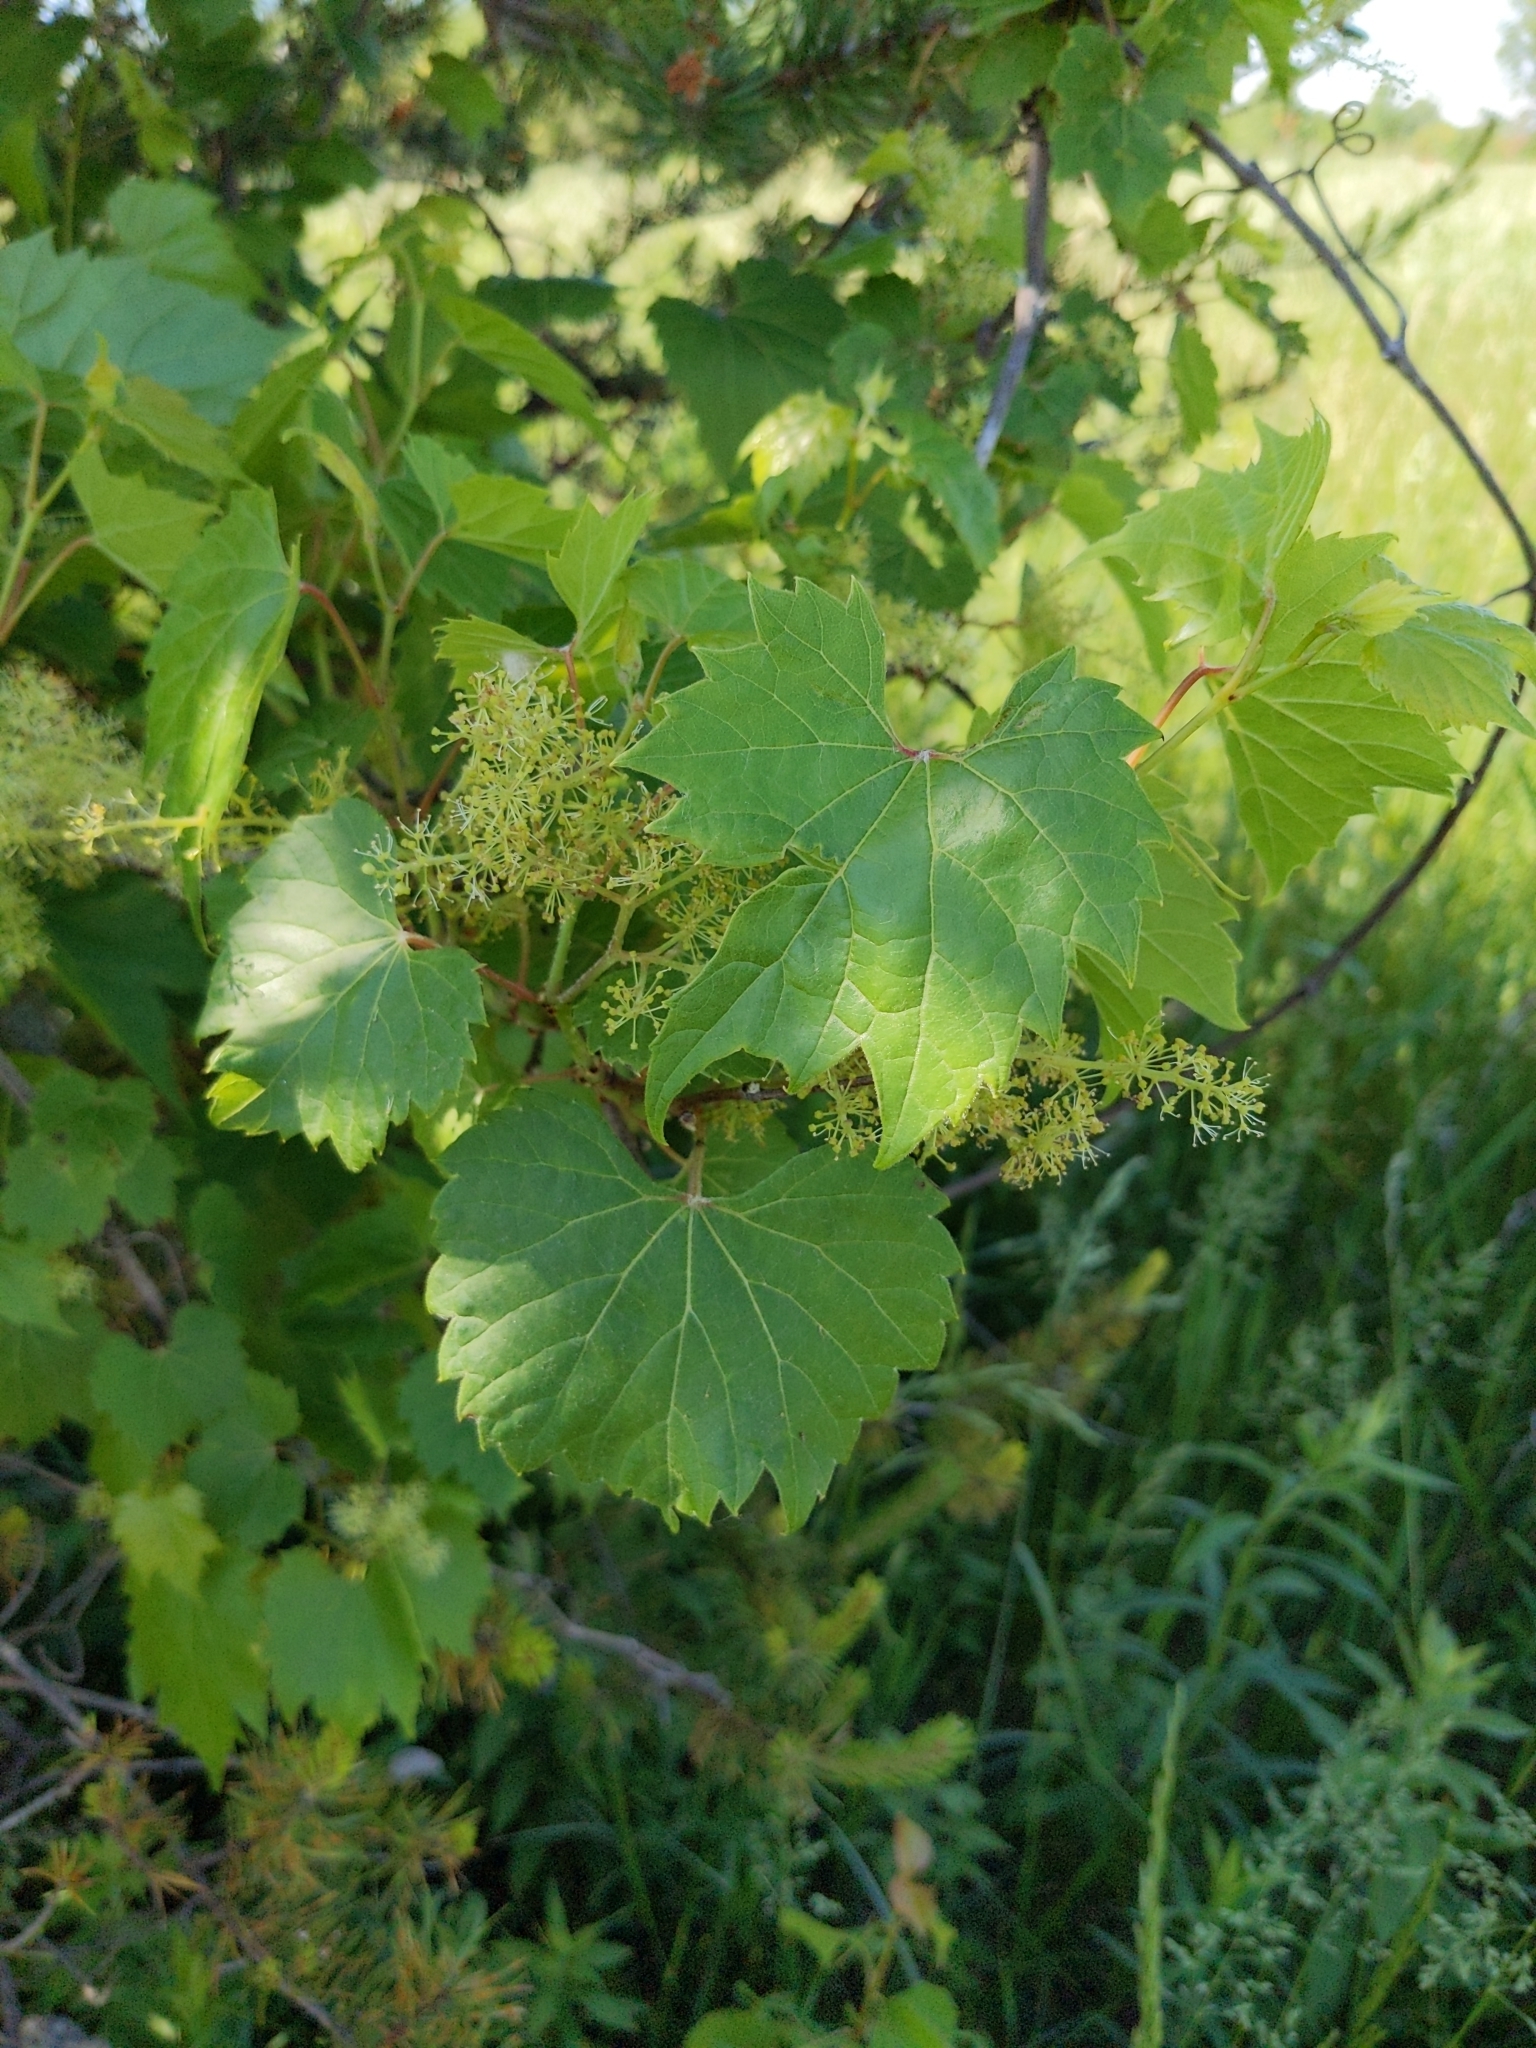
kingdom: Plantae
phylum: Tracheophyta
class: Magnoliopsida
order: Vitales
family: Vitaceae
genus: Vitis
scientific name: Vitis riparia
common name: Frost grape
